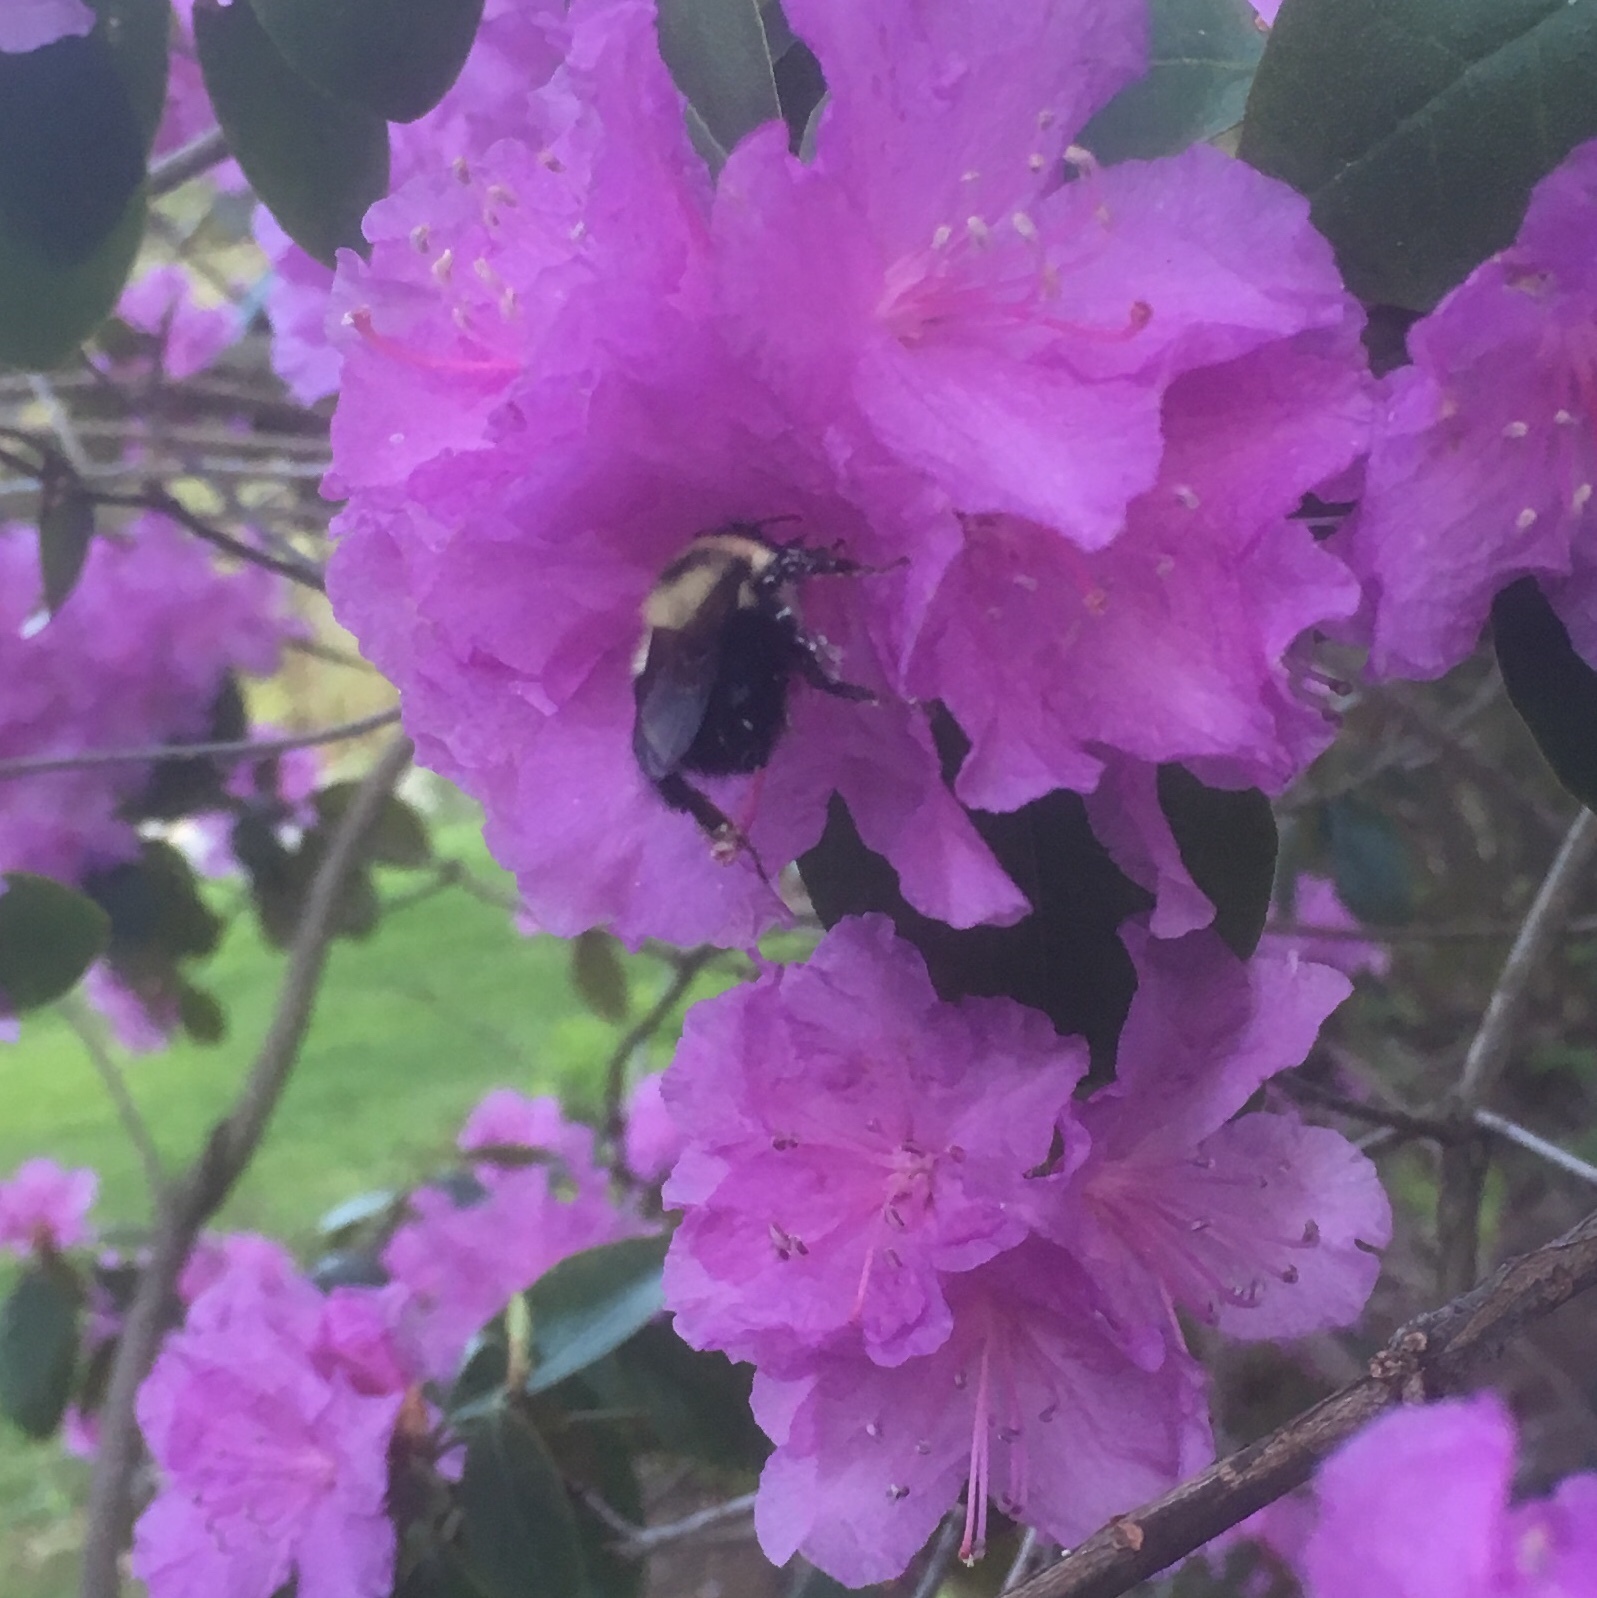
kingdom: Animalia
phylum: Arthropoda
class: Insecta
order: Hymenoptera
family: Apidae
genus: Bombus
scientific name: Bombus bimaculatus
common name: Two-spotted bumble bee
